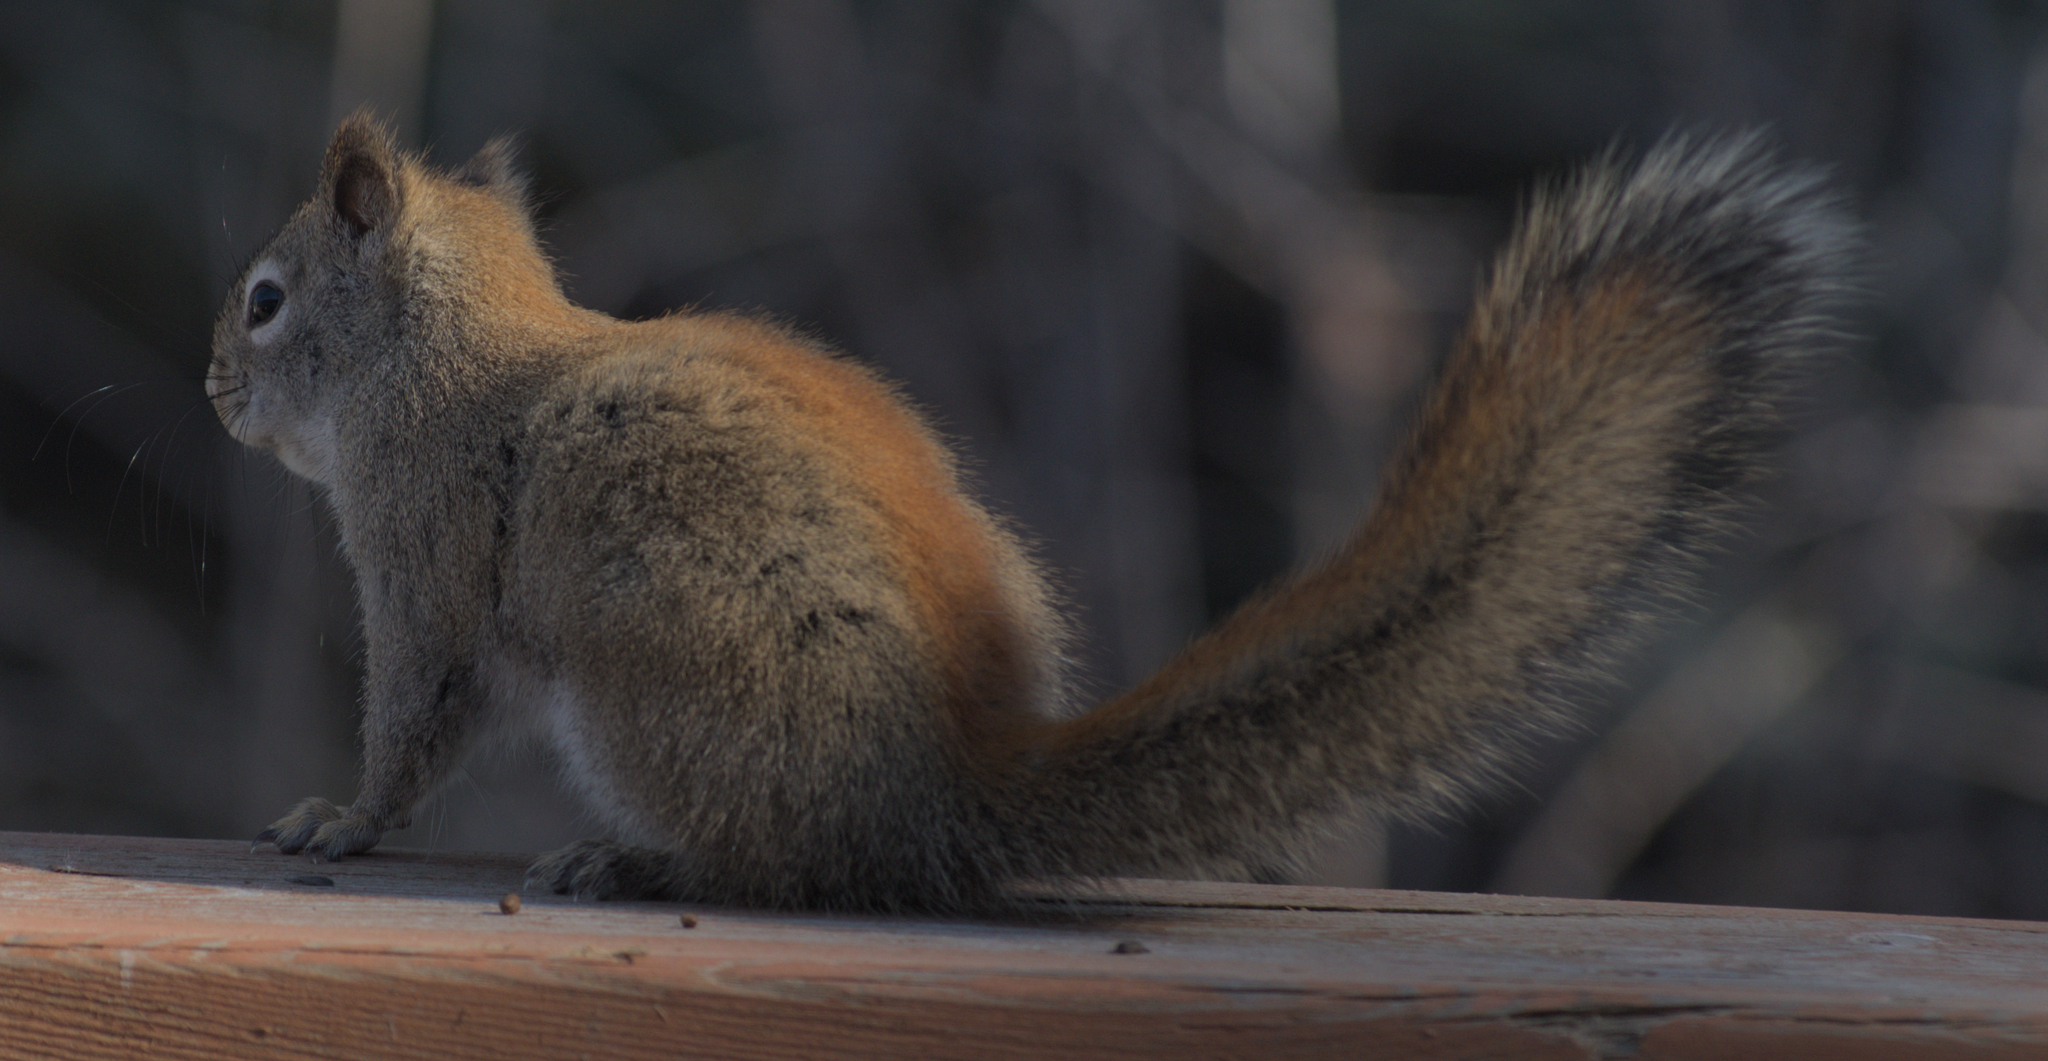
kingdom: Animalia
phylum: Chordata
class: Mammalia
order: Rodentia
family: Sciuridae
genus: Tamiasciurus
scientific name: Tamiasciurus hudsonicus
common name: Red squirrel
